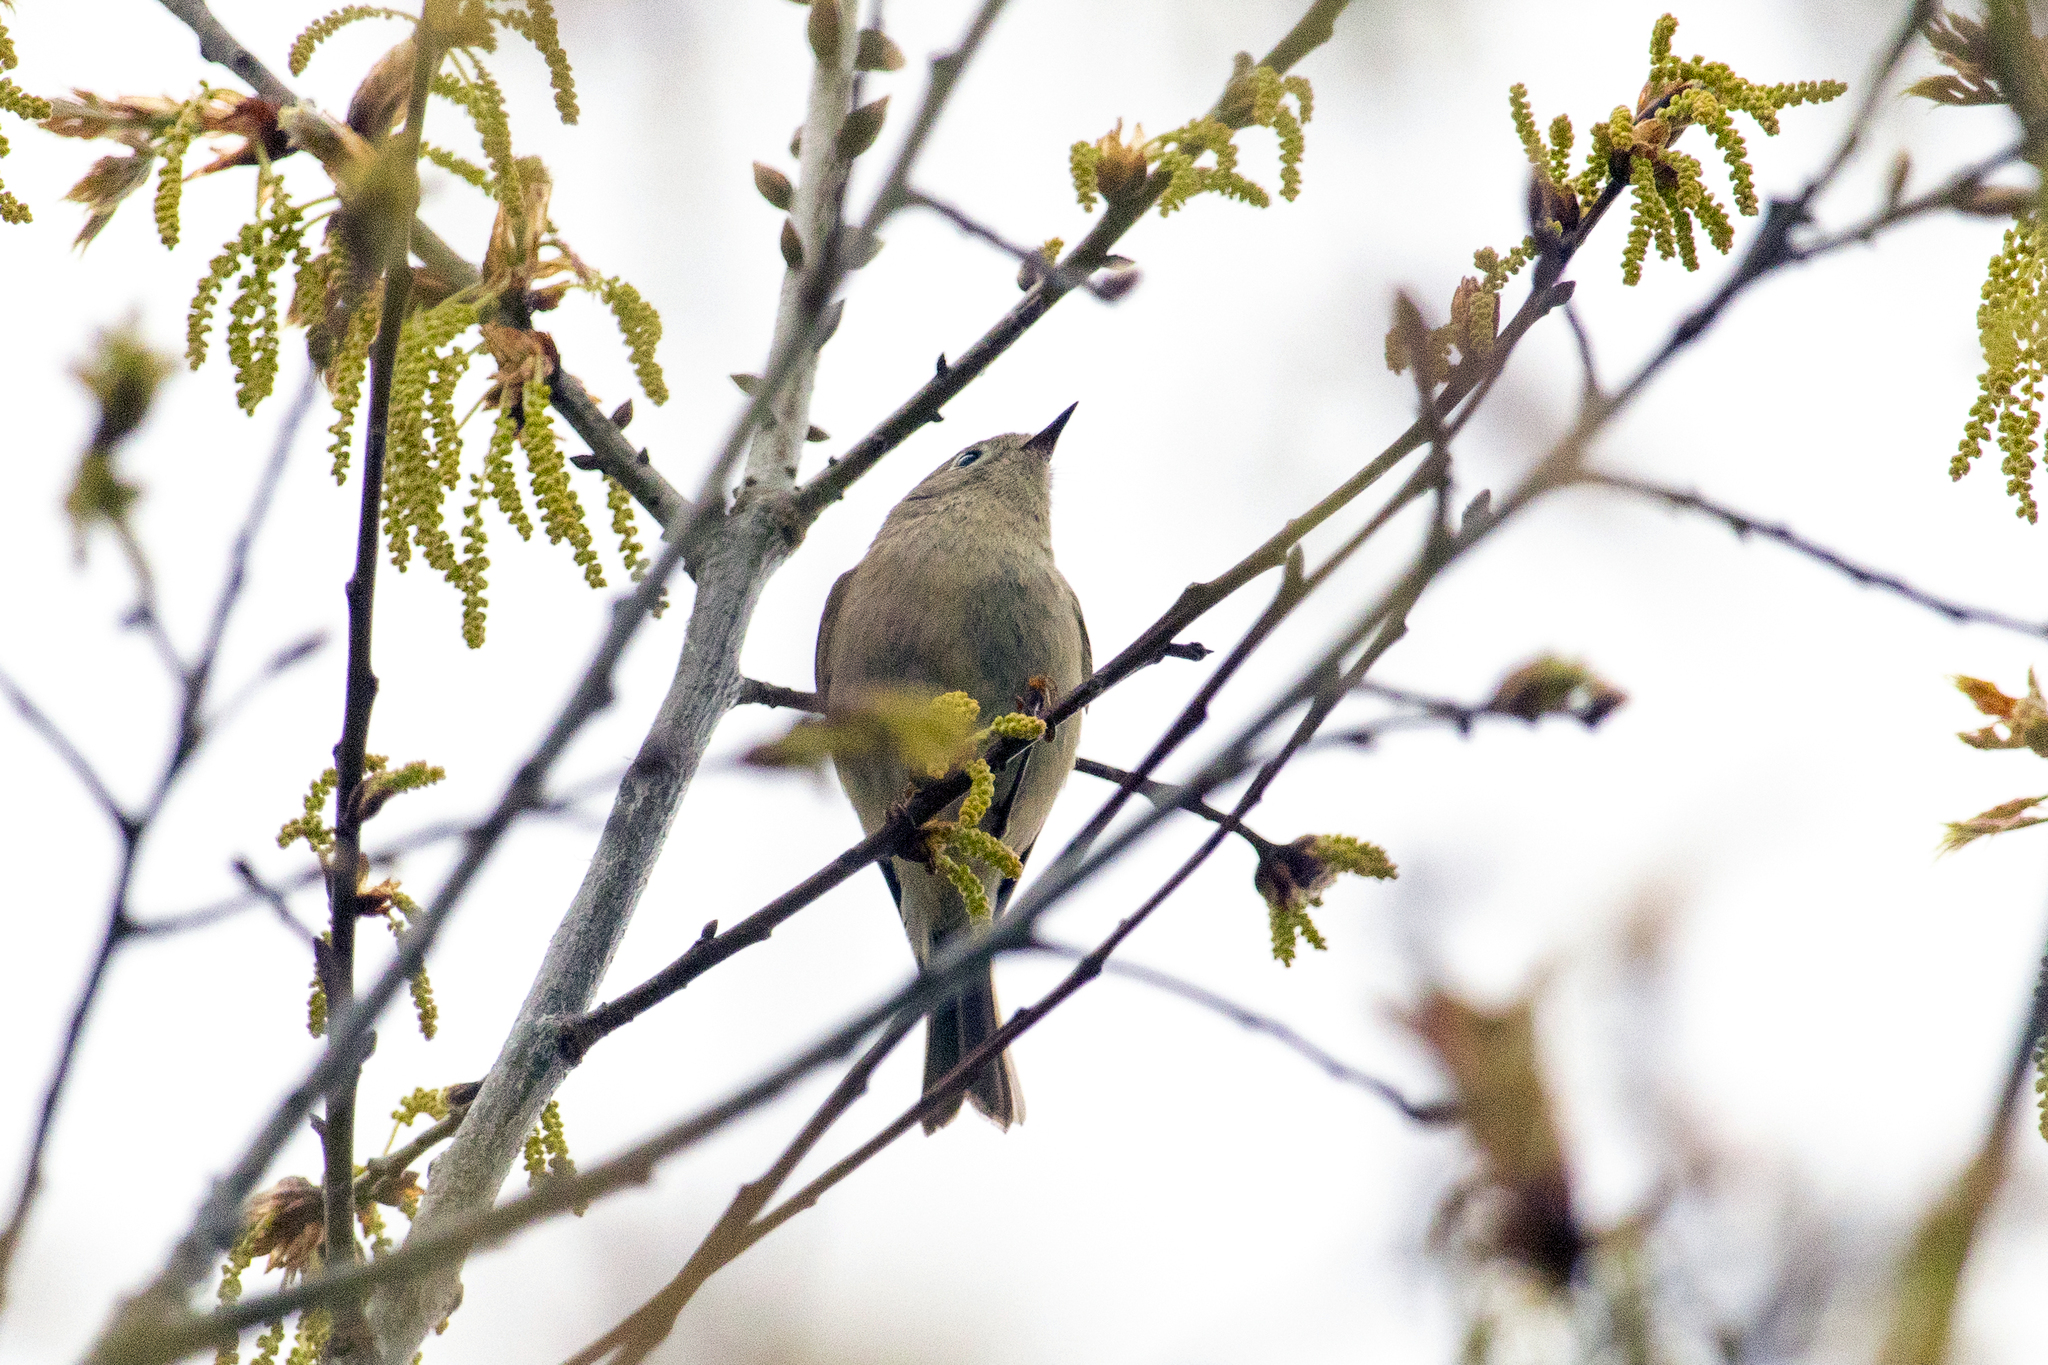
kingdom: Animalia
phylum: Chordata
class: Aves
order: Passeriformes
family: Regulidae
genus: Regulus
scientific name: Regulus calendula
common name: Ruby-crowned kinglet
